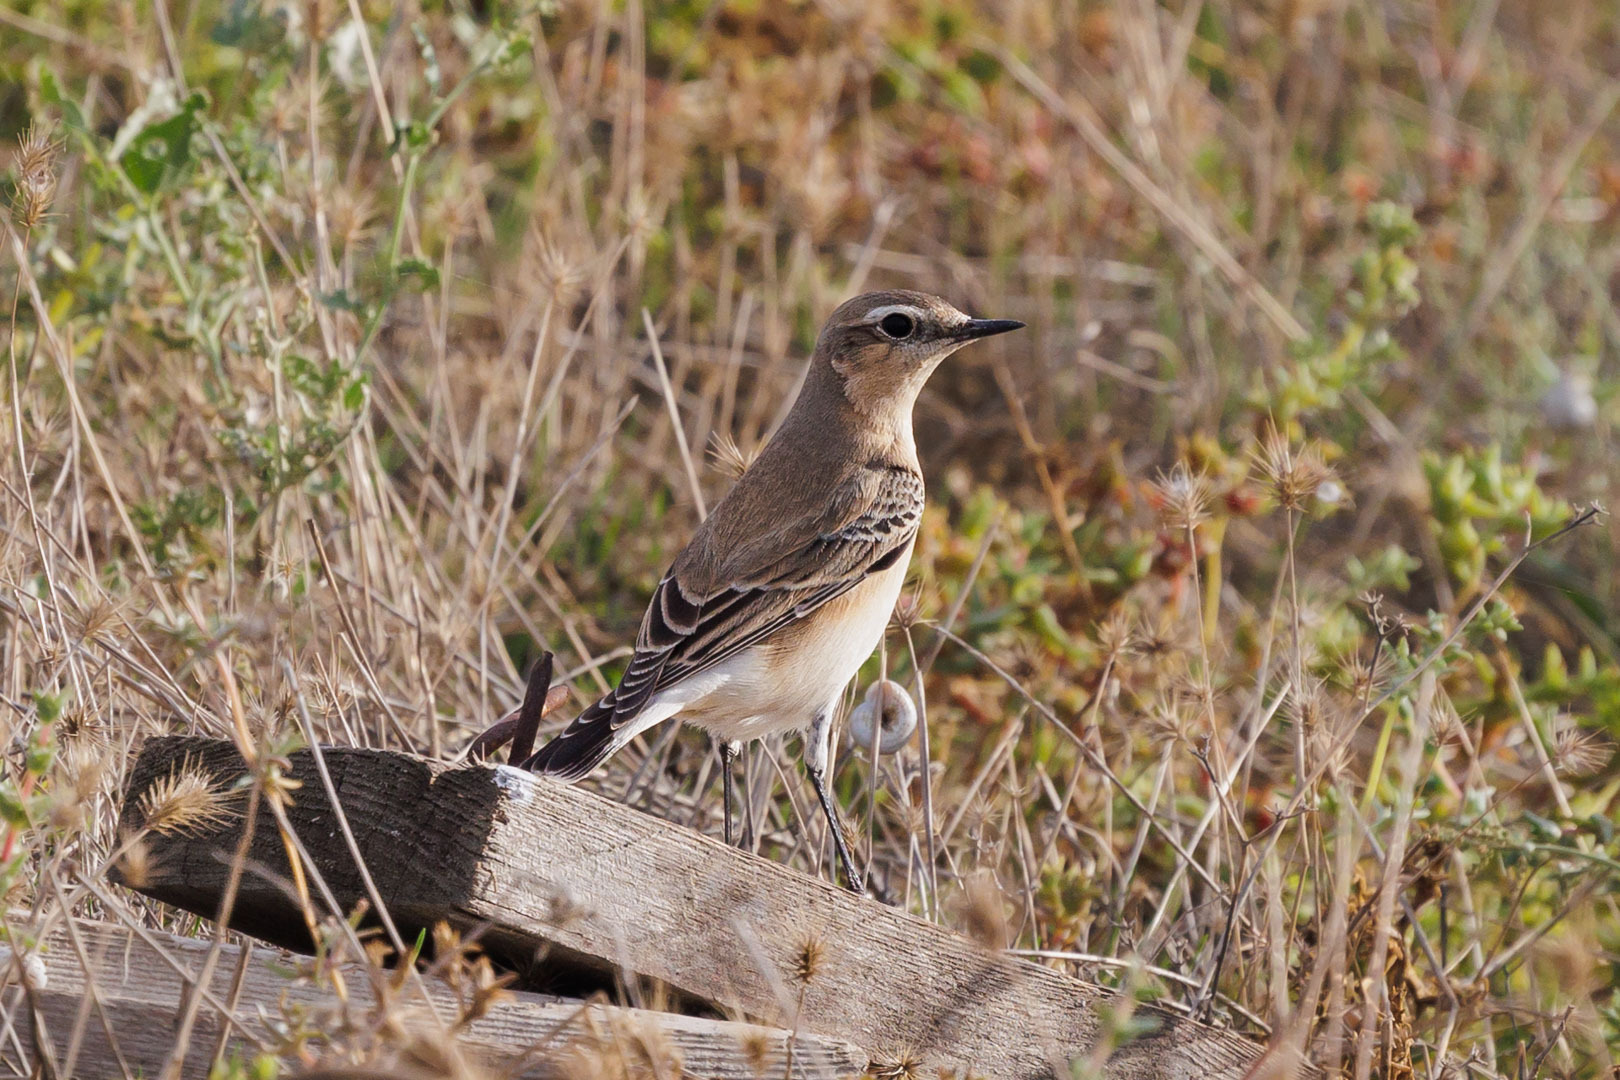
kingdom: Animalia
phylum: Chordata
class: Aves
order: Passeriformes
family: Muscicapidae
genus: Oenanthe
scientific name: Oenanthe oenanthe
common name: Northern wheatear
